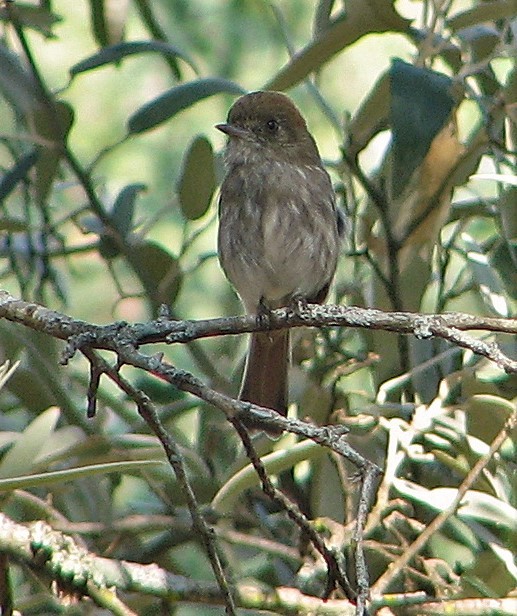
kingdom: Animalia
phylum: Chordata
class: Aves
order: Passeriformes
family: Tyrannidae
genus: Knipolegus
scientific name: Knipolegus striaticeps
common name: Cinereous tyrant
